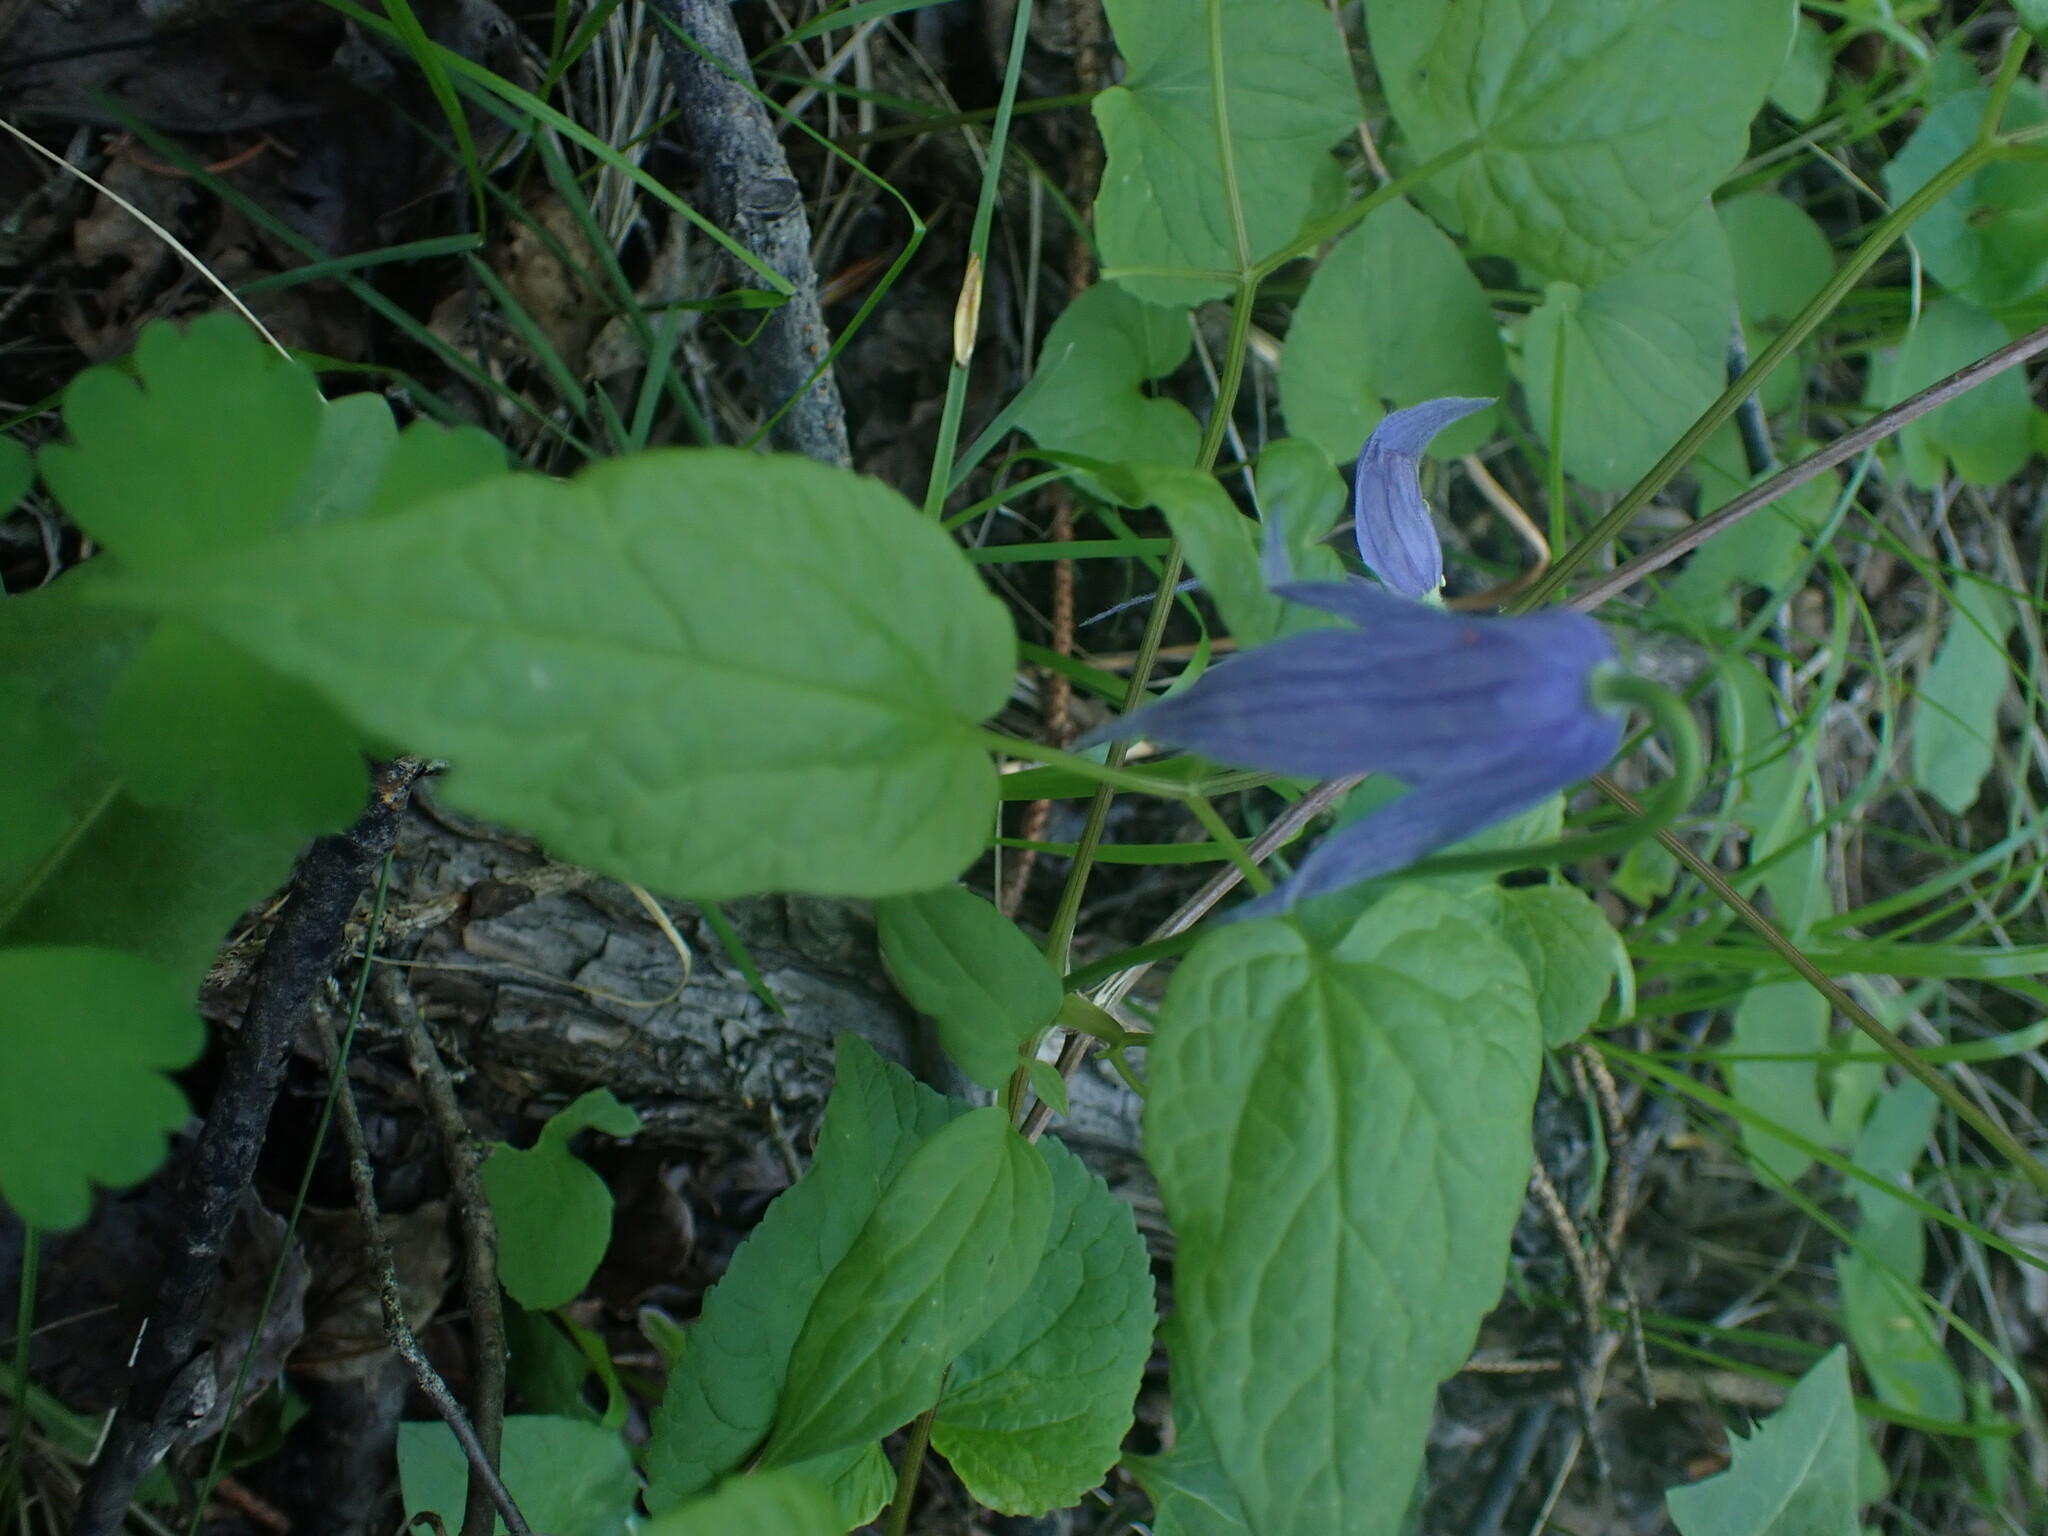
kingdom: Plantae
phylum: Tracheophyta
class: Magnoliopsida
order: Ranunculales
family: Ranunculaceae
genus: Clematis
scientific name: Clematis occidentalis
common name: Purple clematis
